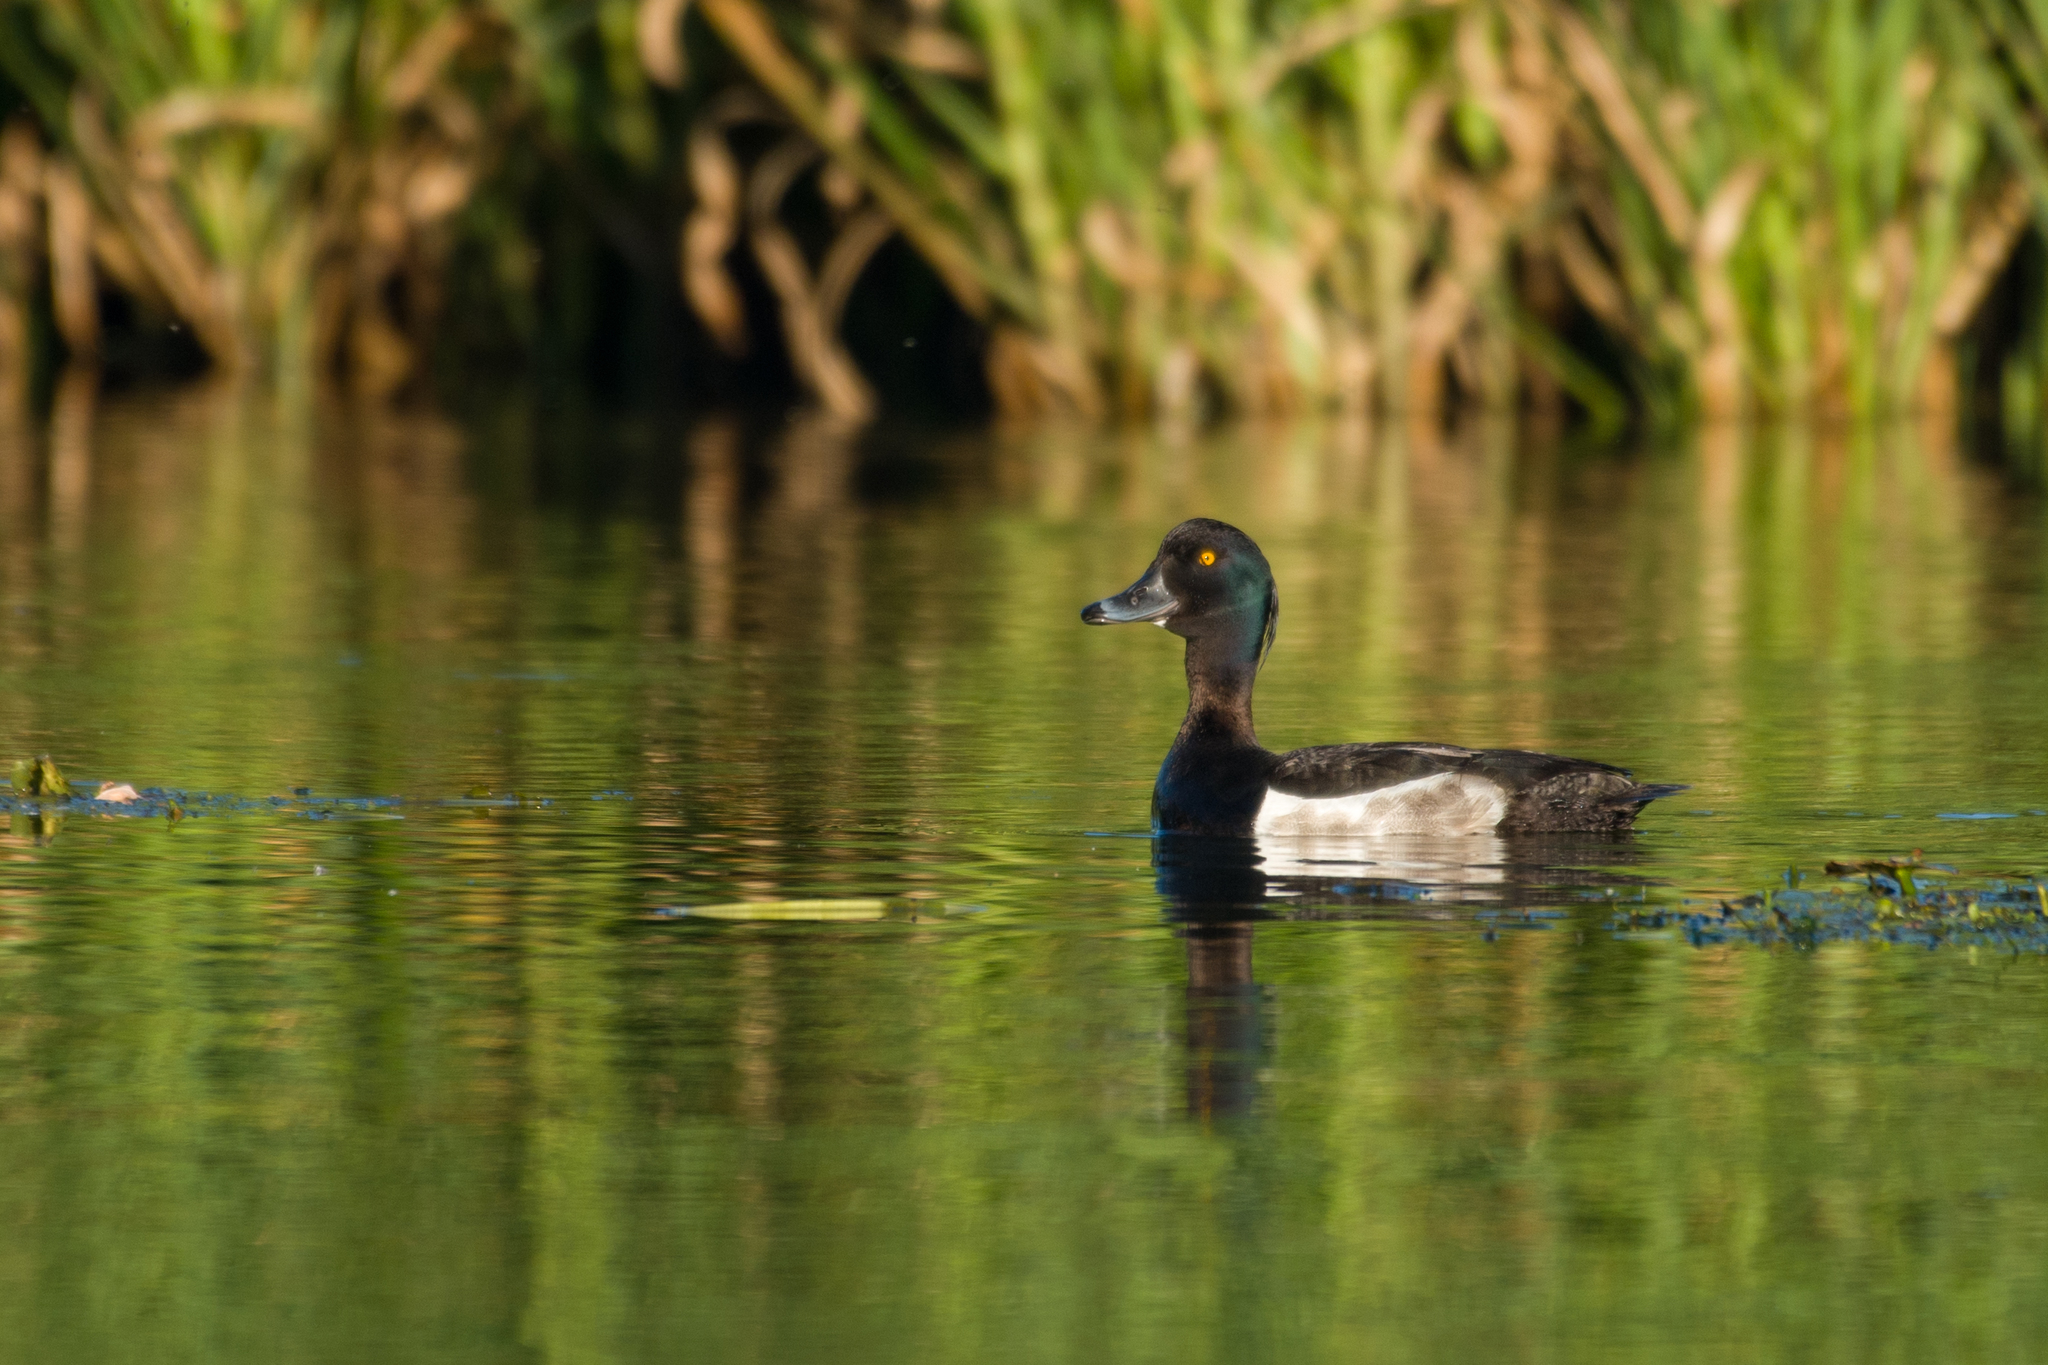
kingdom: Animalia
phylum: Chordata
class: Aves
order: Anseriformes
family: Anatidae
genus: Aythya
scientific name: Aythya fuligula
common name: Tufted duck
